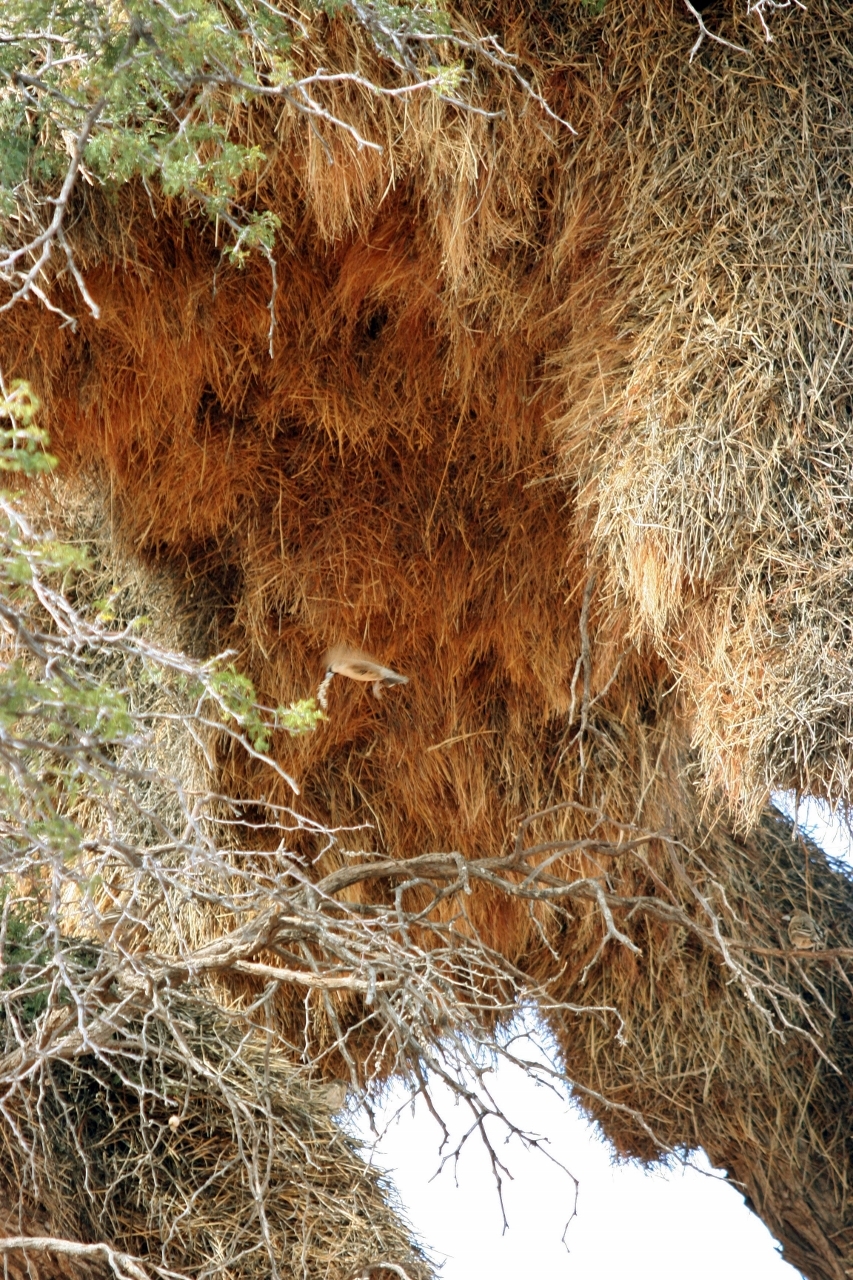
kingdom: Animalia
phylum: Chordata
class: Aves
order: Passeriformes
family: Passeridae
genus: Philetairus
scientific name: Philetairus socius
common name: Sociable weaver
